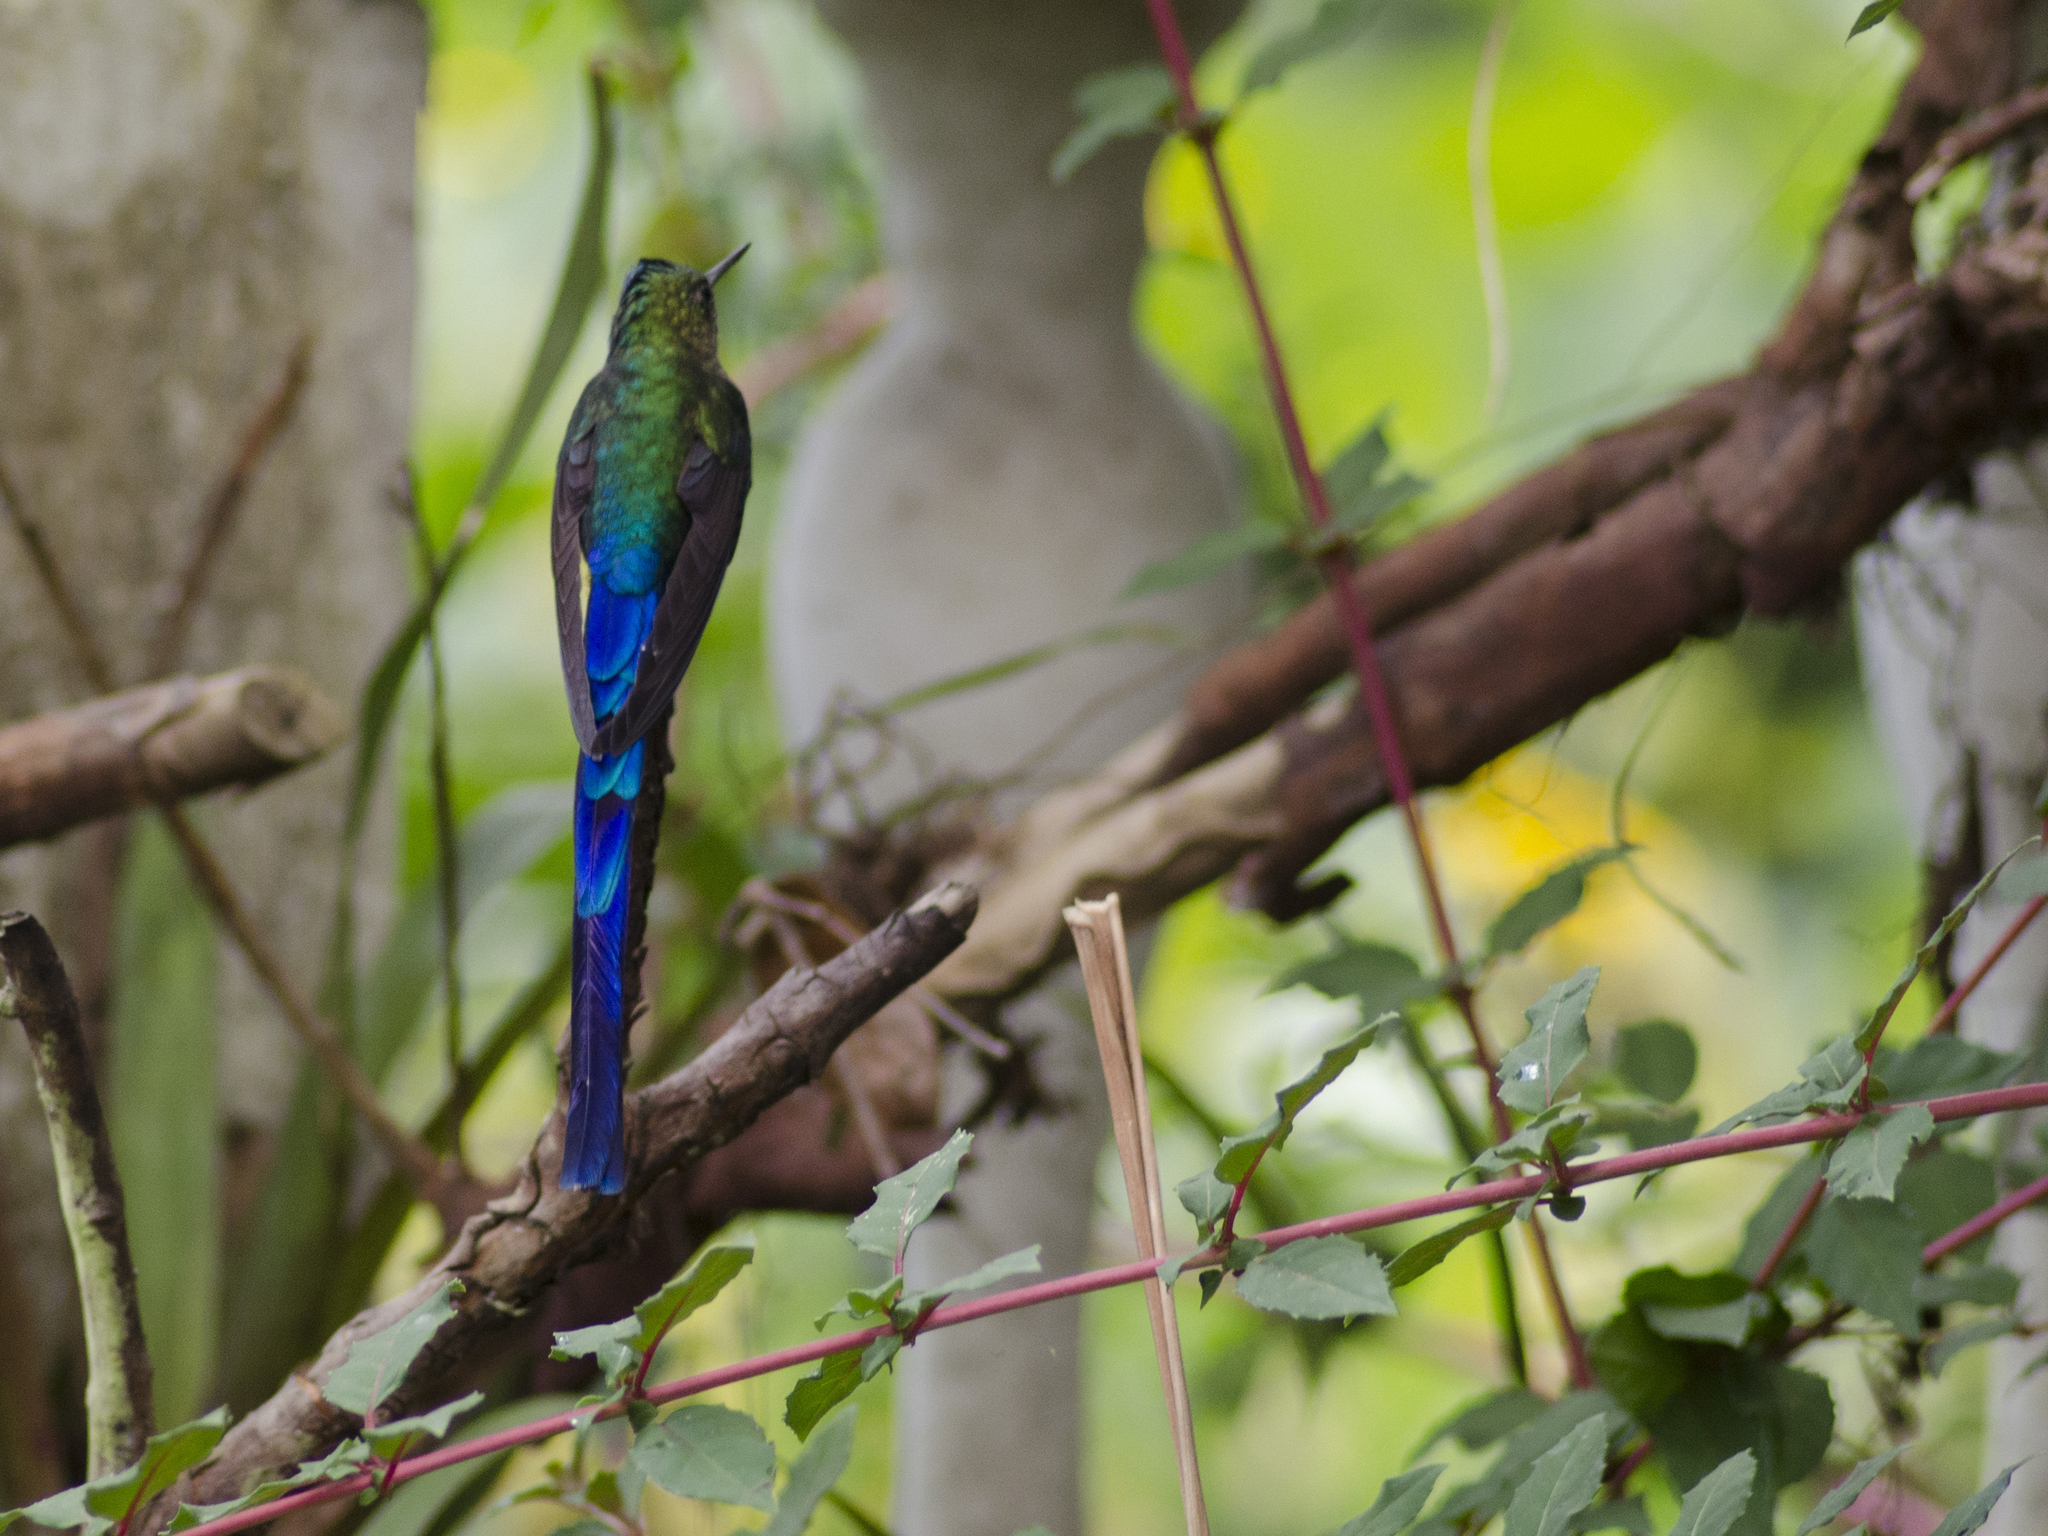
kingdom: Animalia
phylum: Chordata
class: Aves
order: Apodiformes
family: Trochilidae
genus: Aglaiocercus
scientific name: Aglaiocercus coelestis
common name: Violet-tailed sylph
